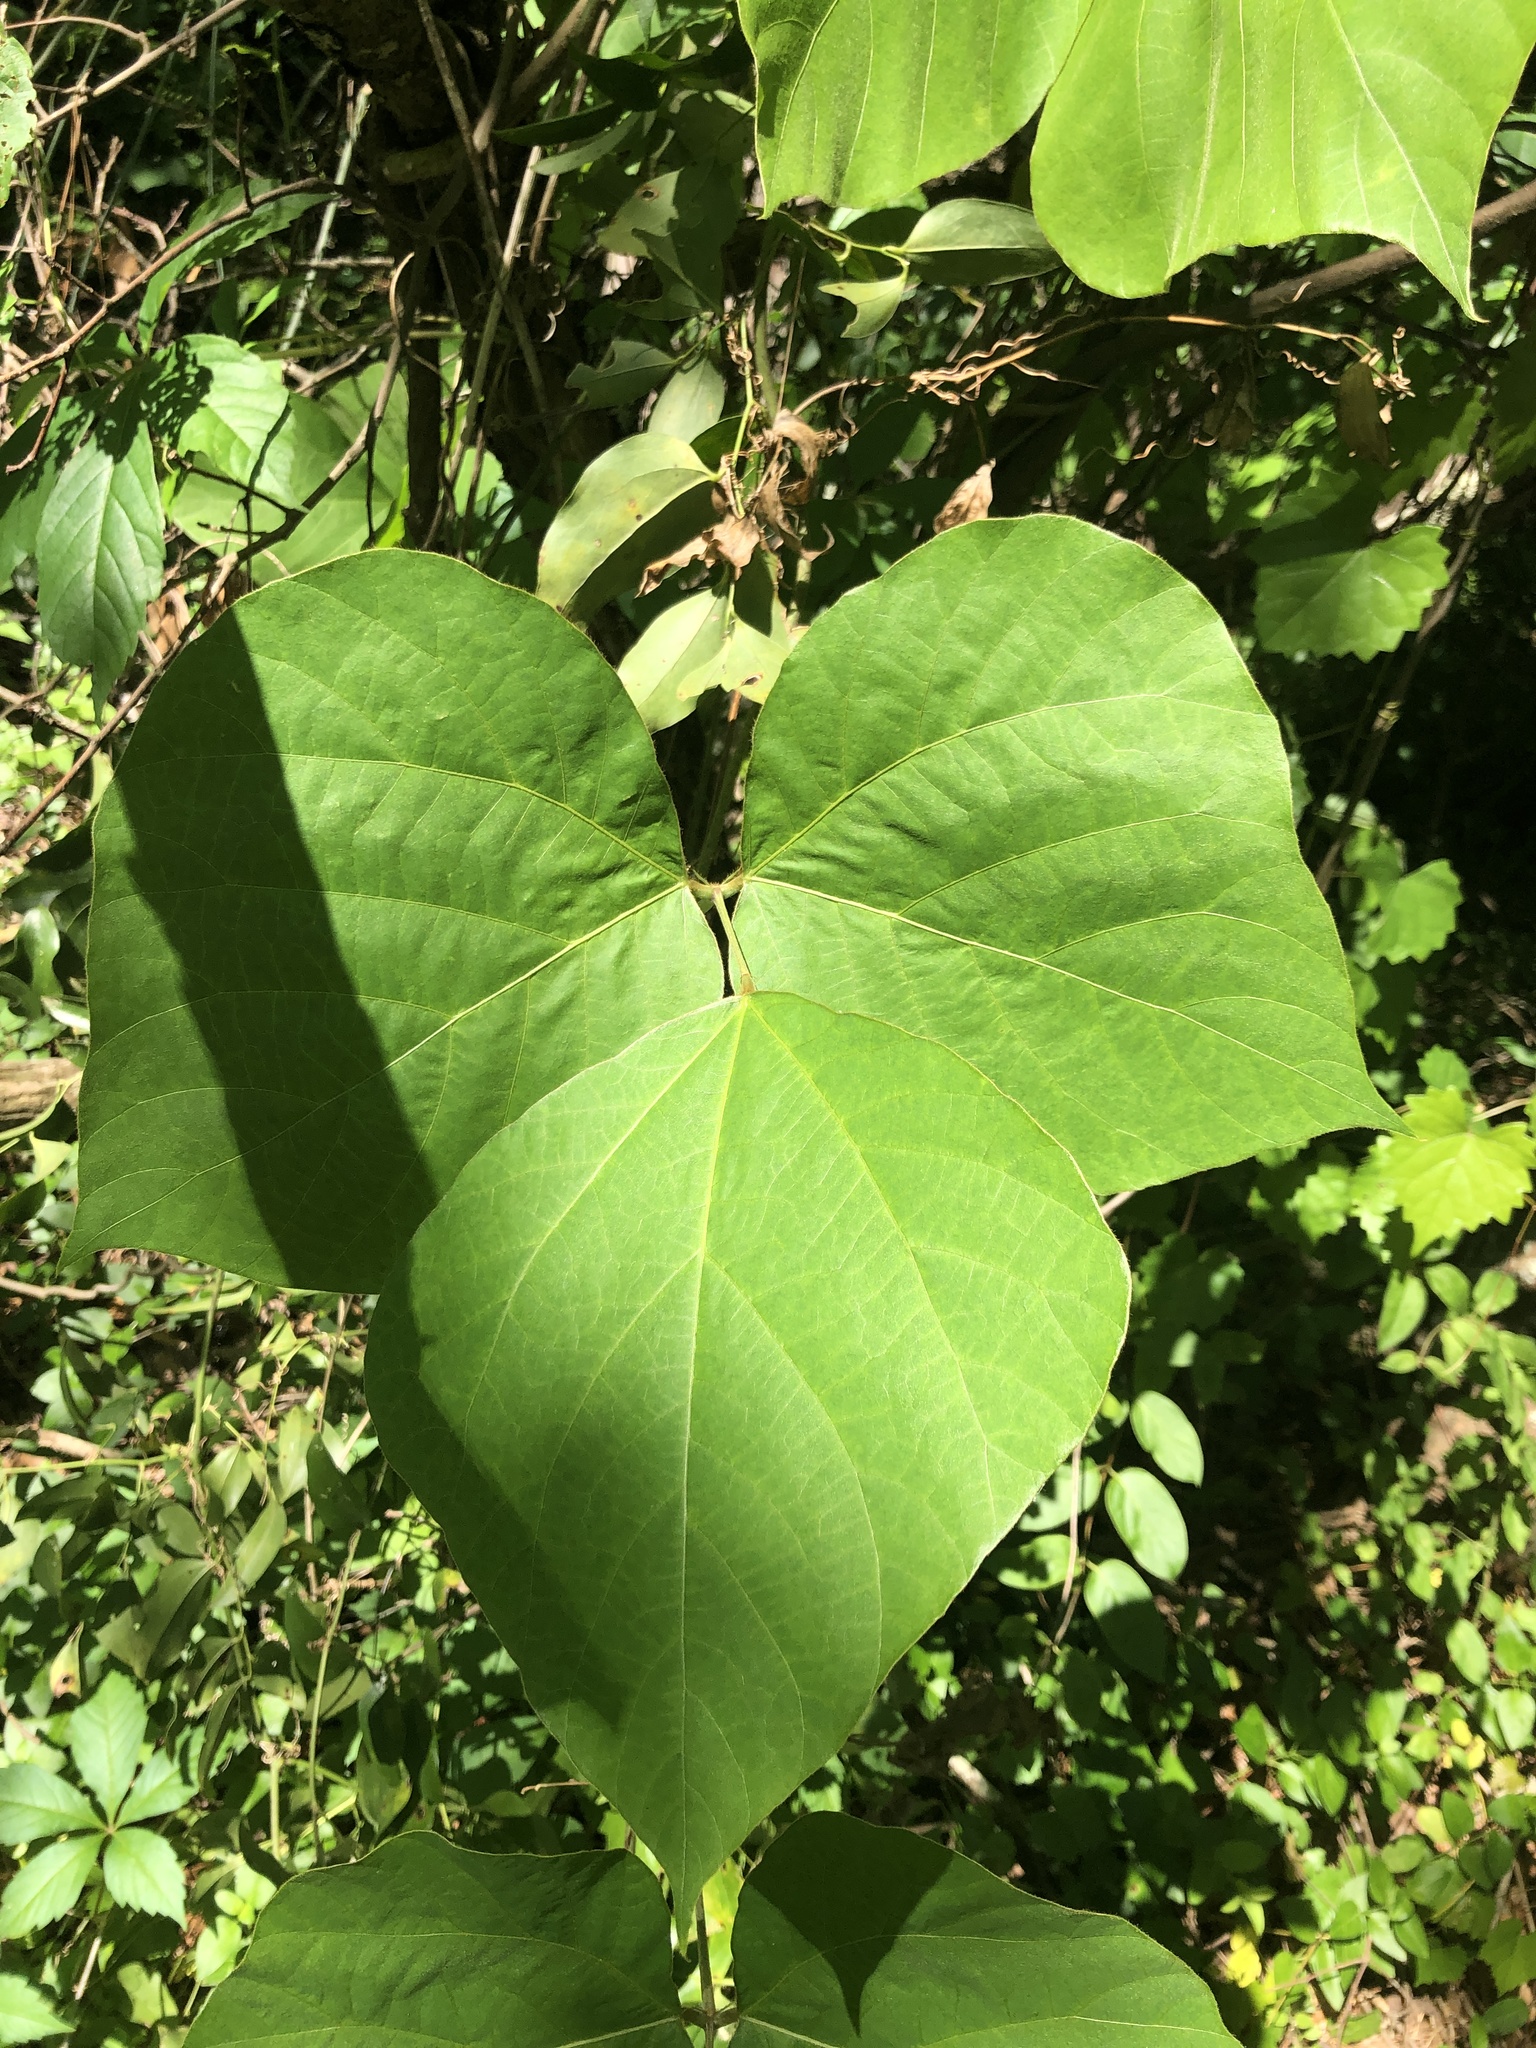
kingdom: Plantae
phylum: Tracheophyta
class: Magnoliopsida
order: Fabales
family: Fabaceae
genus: Pueraria
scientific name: Pueraria montana
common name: Kudzu
